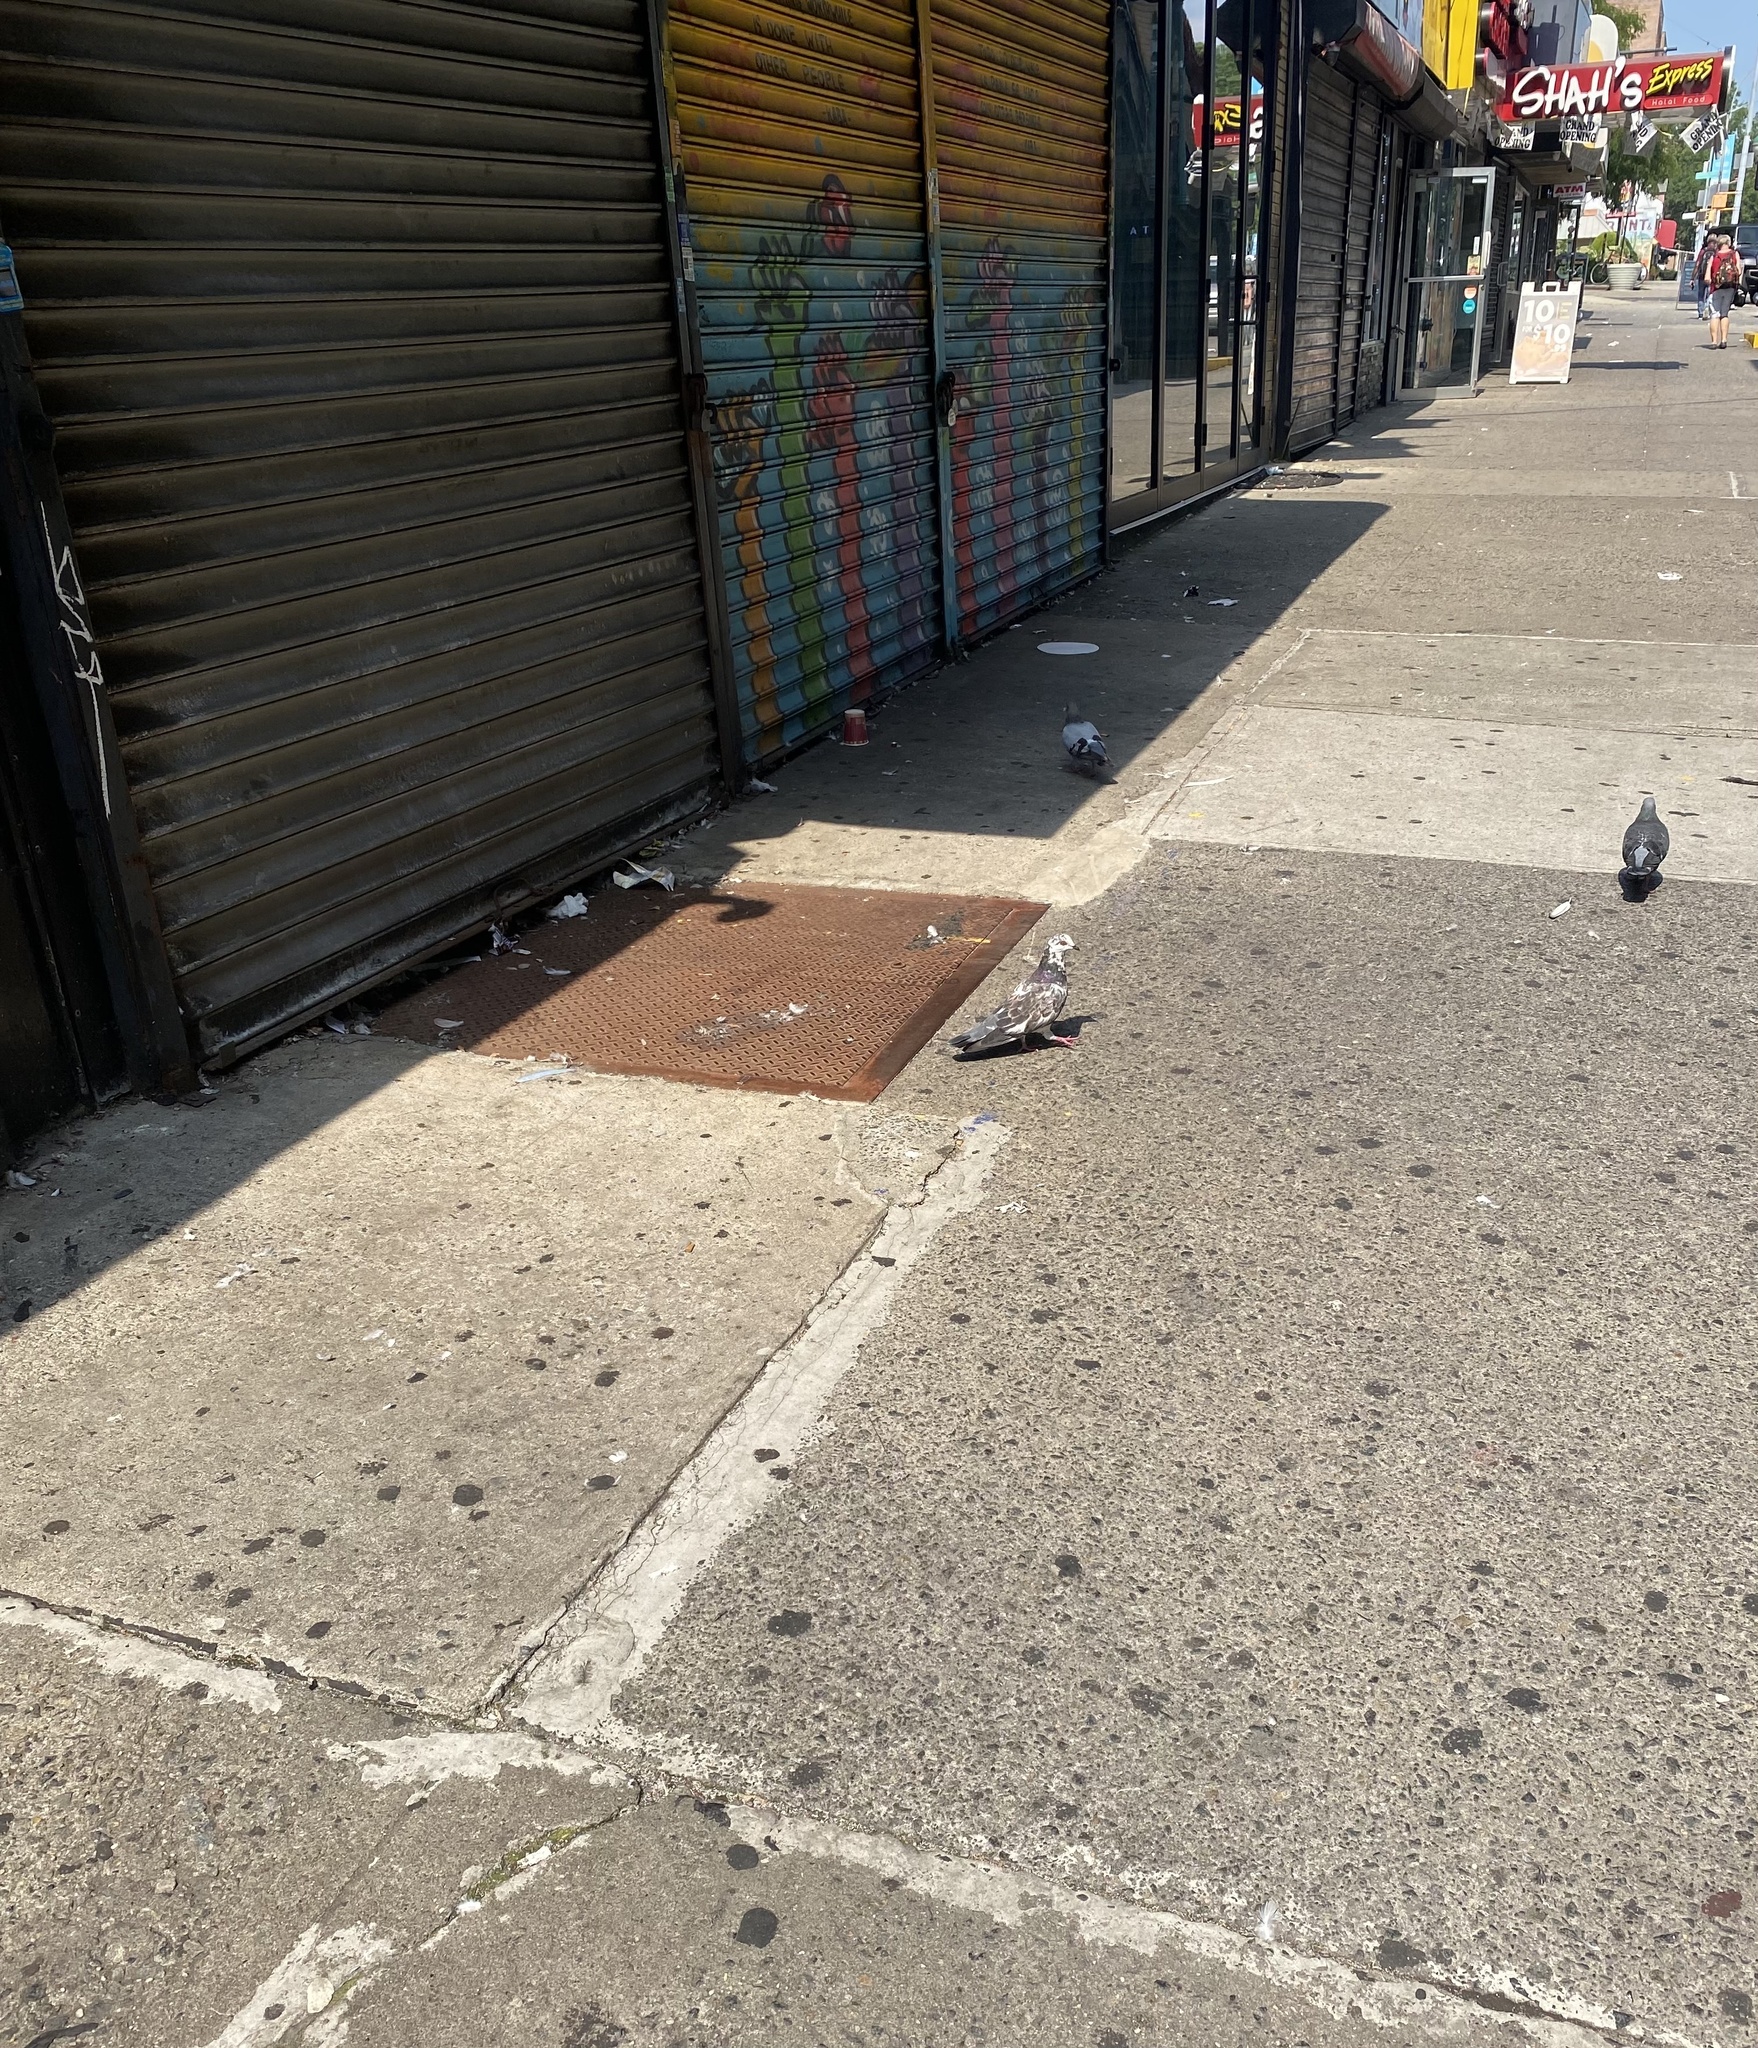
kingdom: Animalia
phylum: Chordata
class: Aves
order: Columbiformes
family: Columbidae
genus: Columba
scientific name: Columba livia
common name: Rock pigeon
